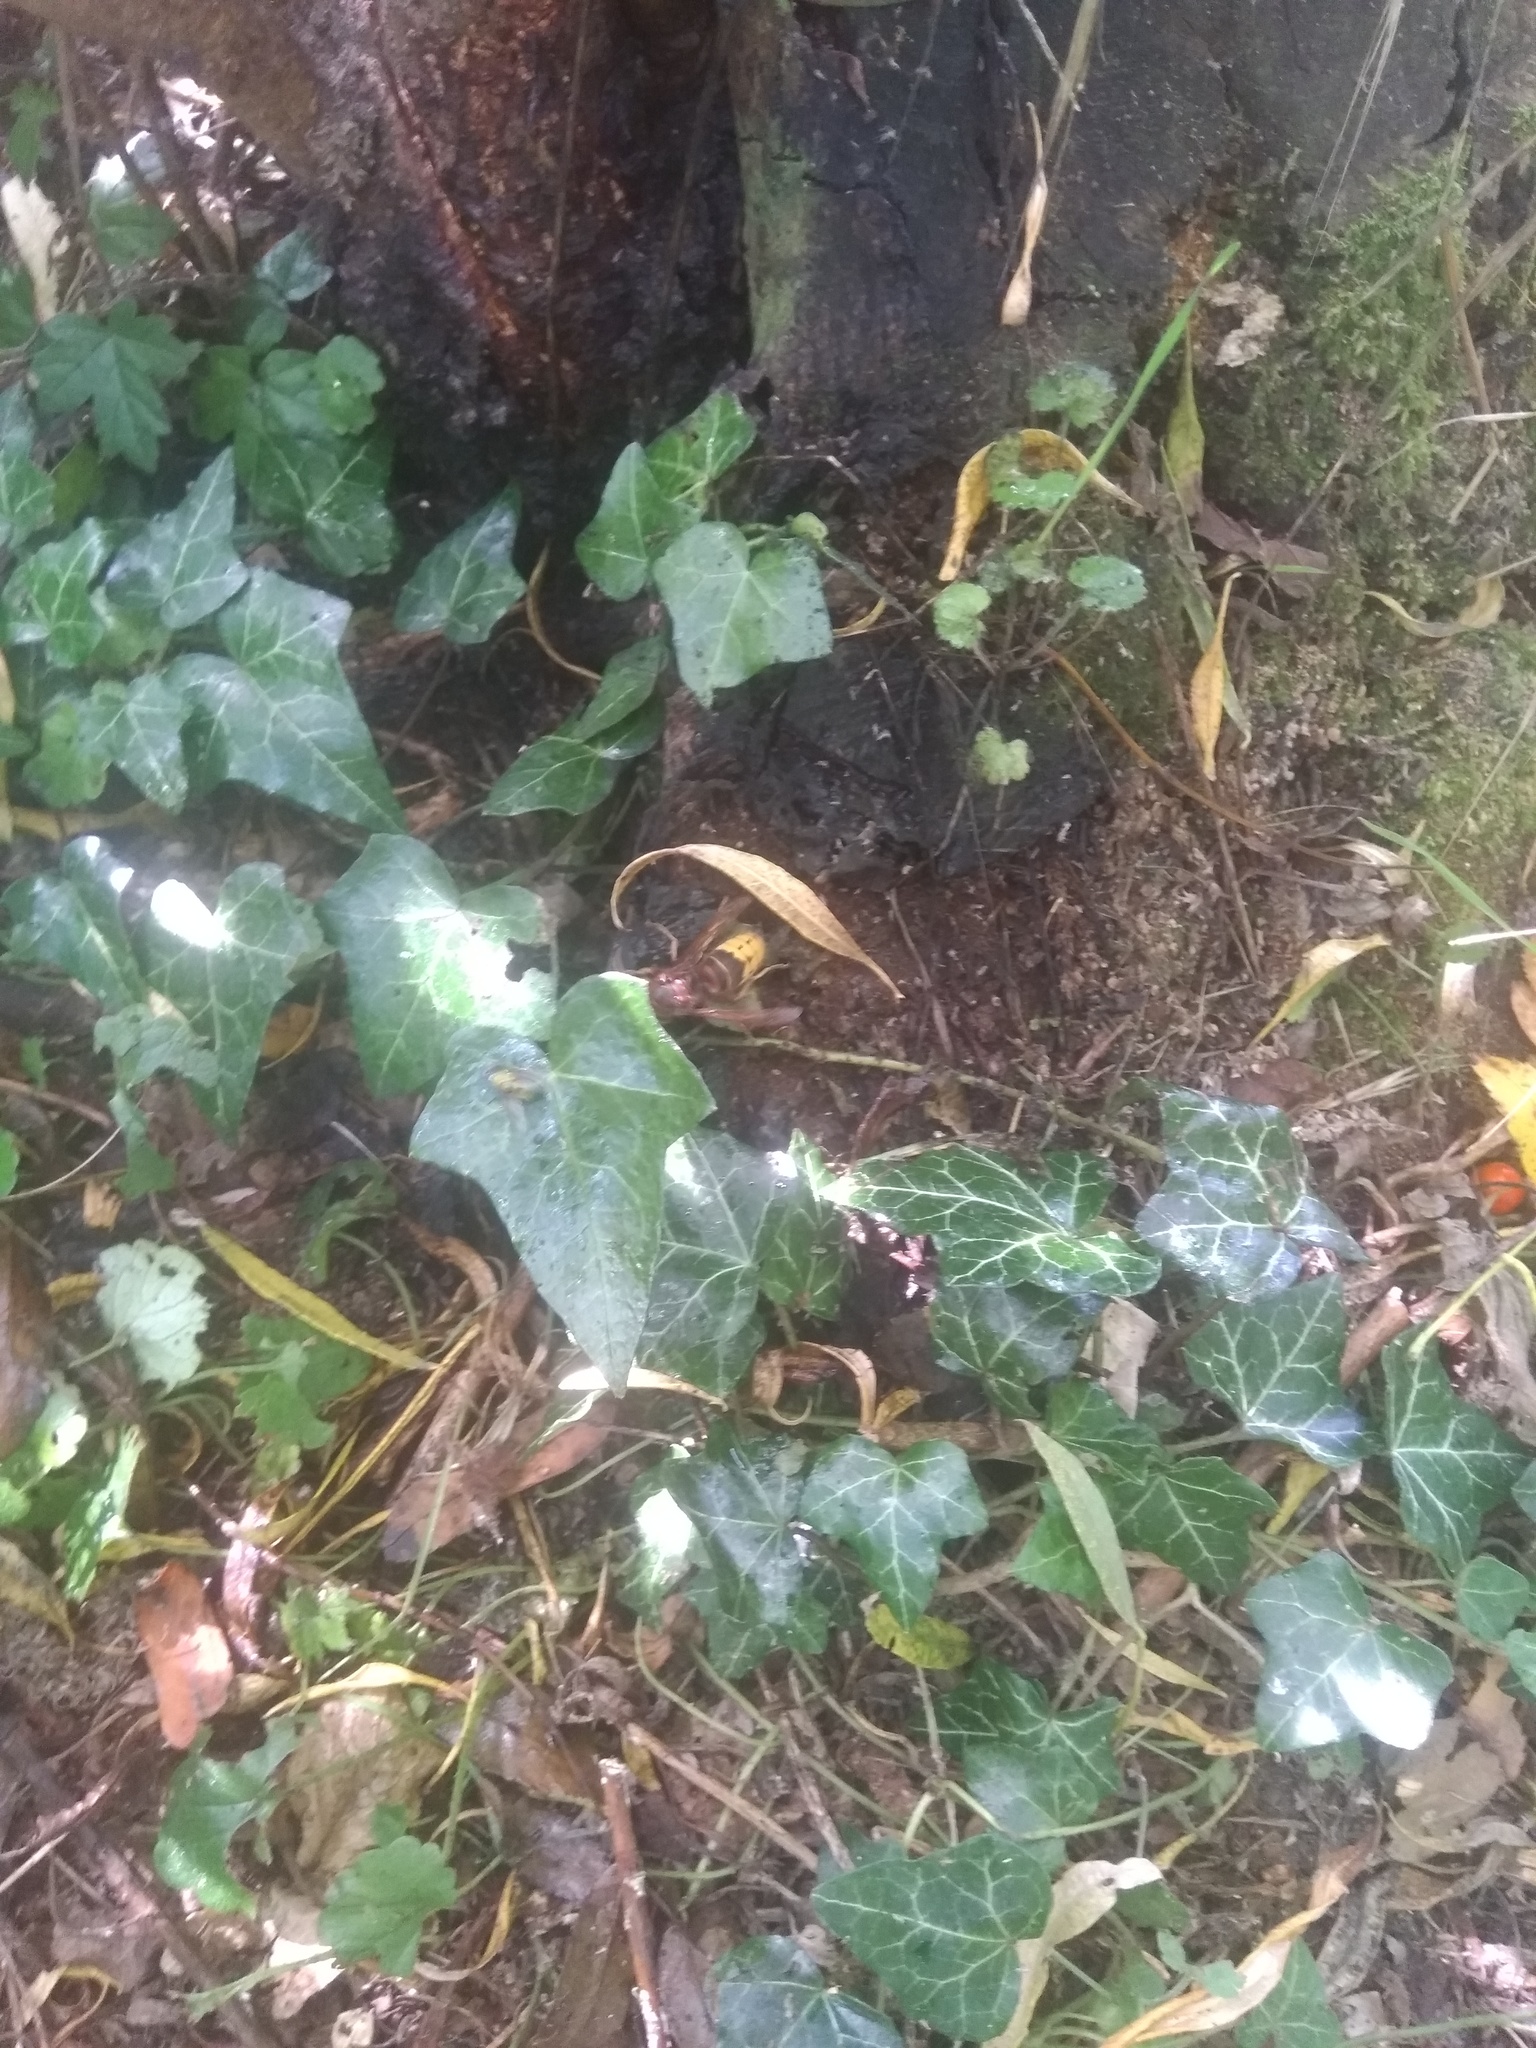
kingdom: Animalia
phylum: Arthropoda
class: Insecta
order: Hymenoptera
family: Vespidae
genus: Vespa
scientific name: Vespa crabro
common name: Hornet
